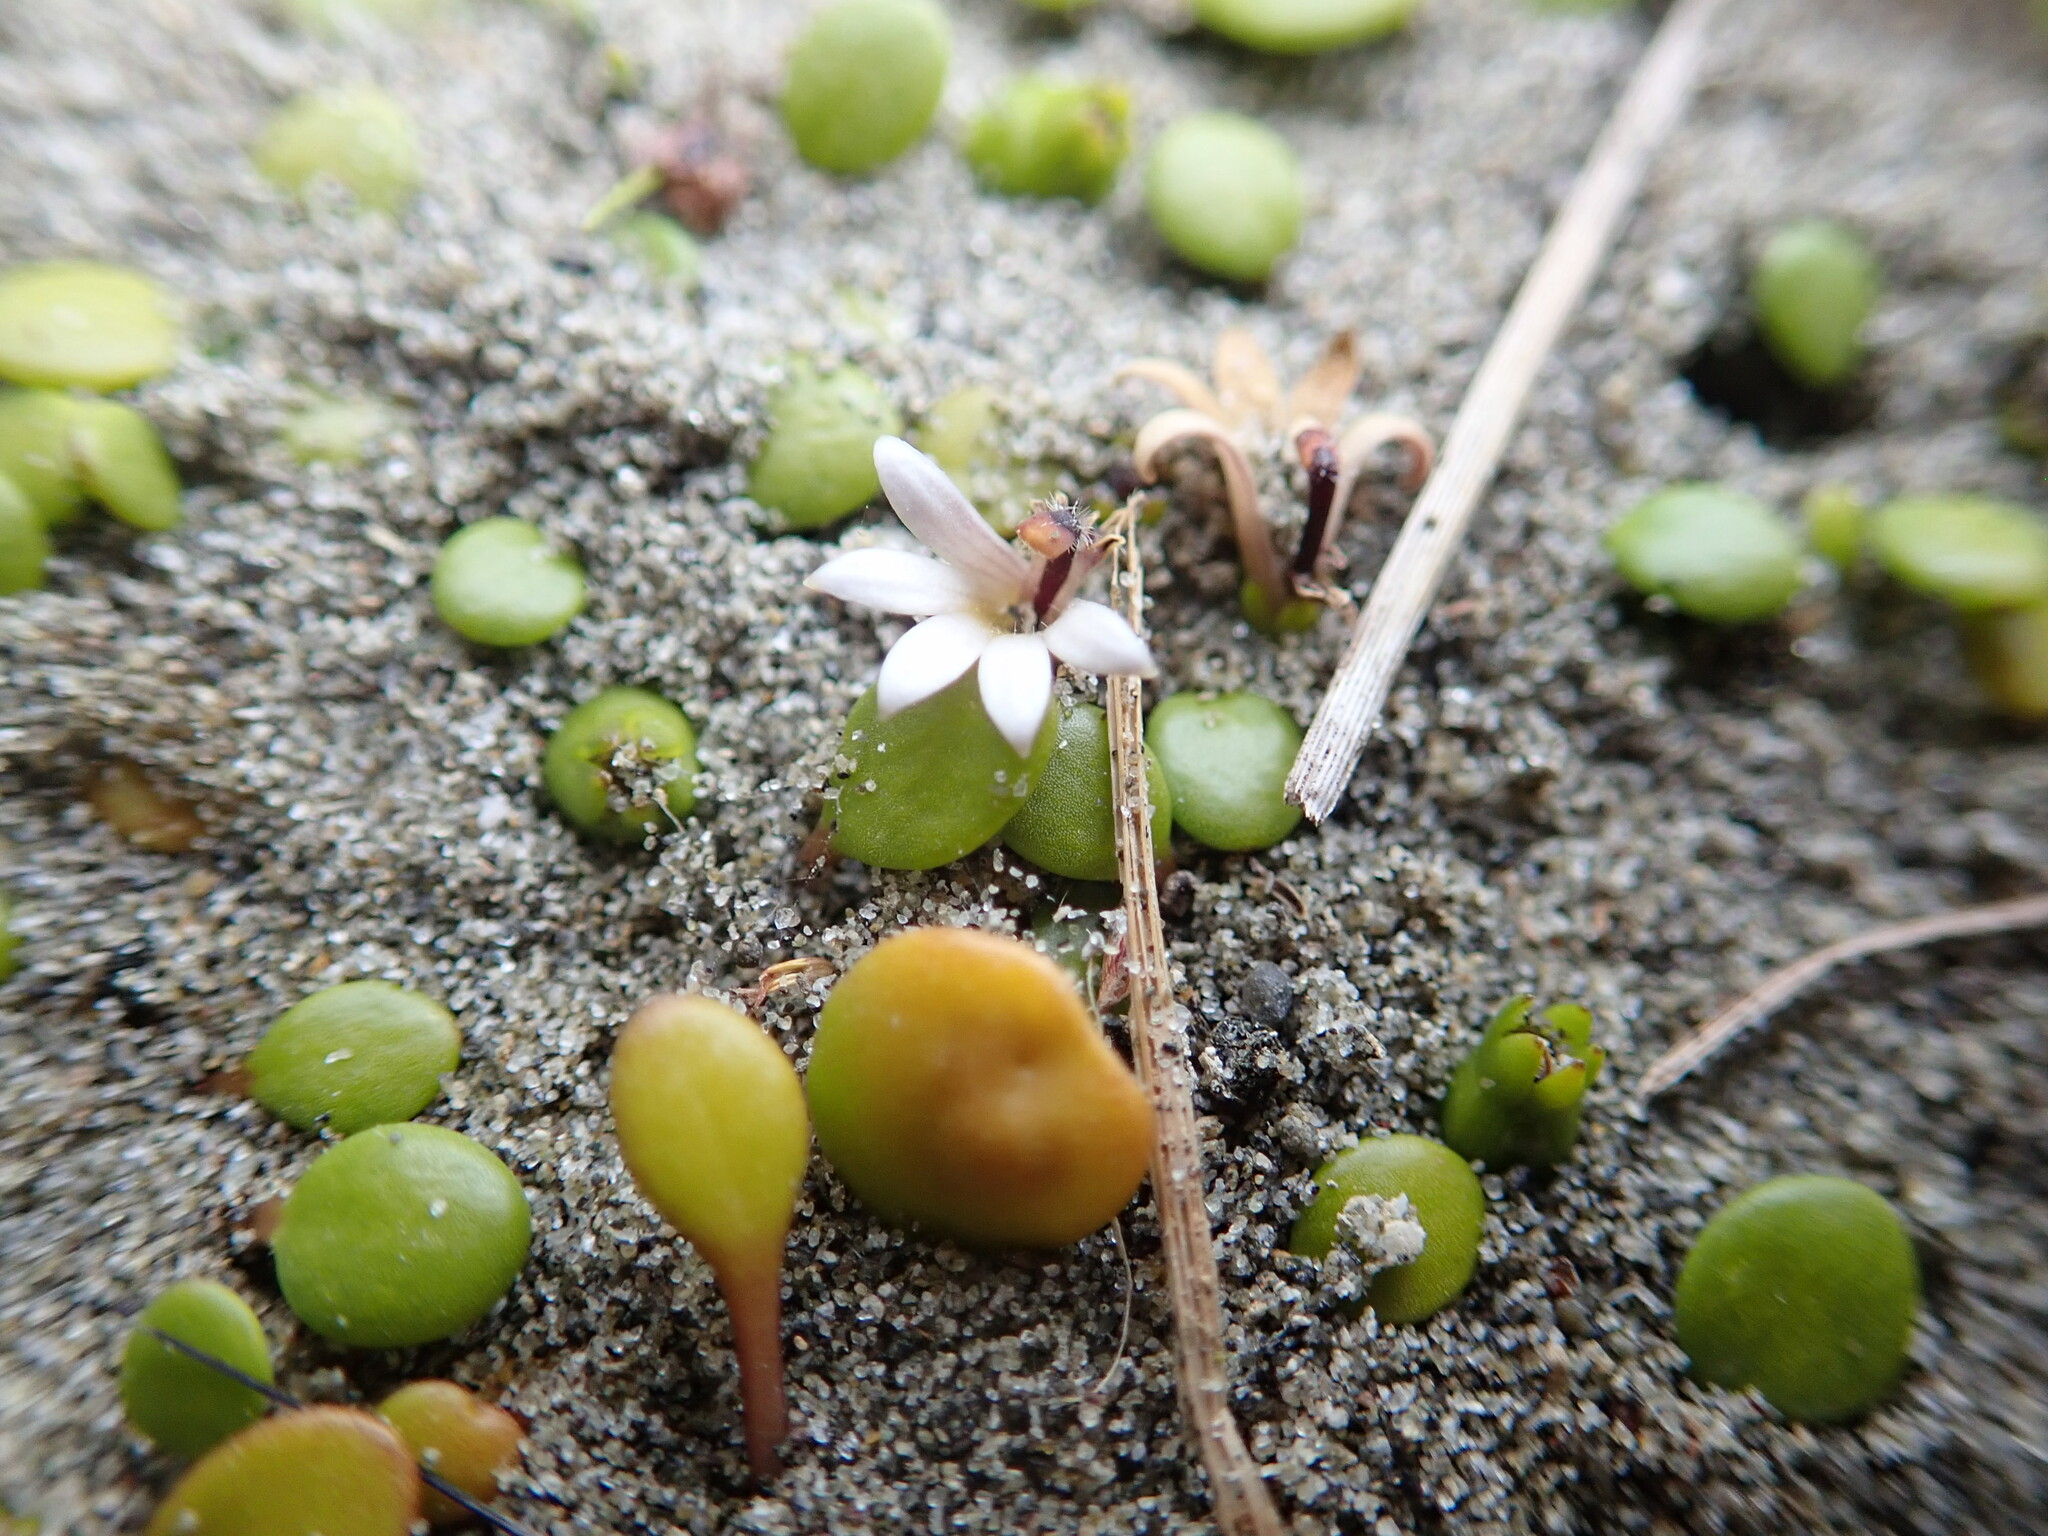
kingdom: Plantae
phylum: Tracheophyta
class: Magnoliopsida
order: Asterales
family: Goodeniaceae
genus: Goodenia
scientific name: Goodenia heenanii
